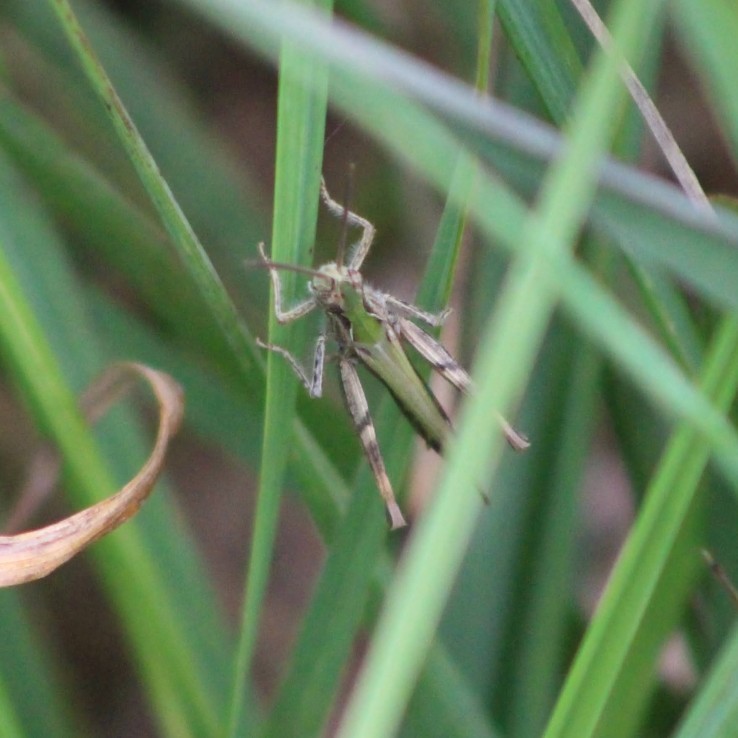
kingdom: Animalia
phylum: Arthropoda
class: Insecta
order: Orthoptera
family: Acrididae
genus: Chorthippus
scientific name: Chorthippus brunneus
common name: Field grasshopper
